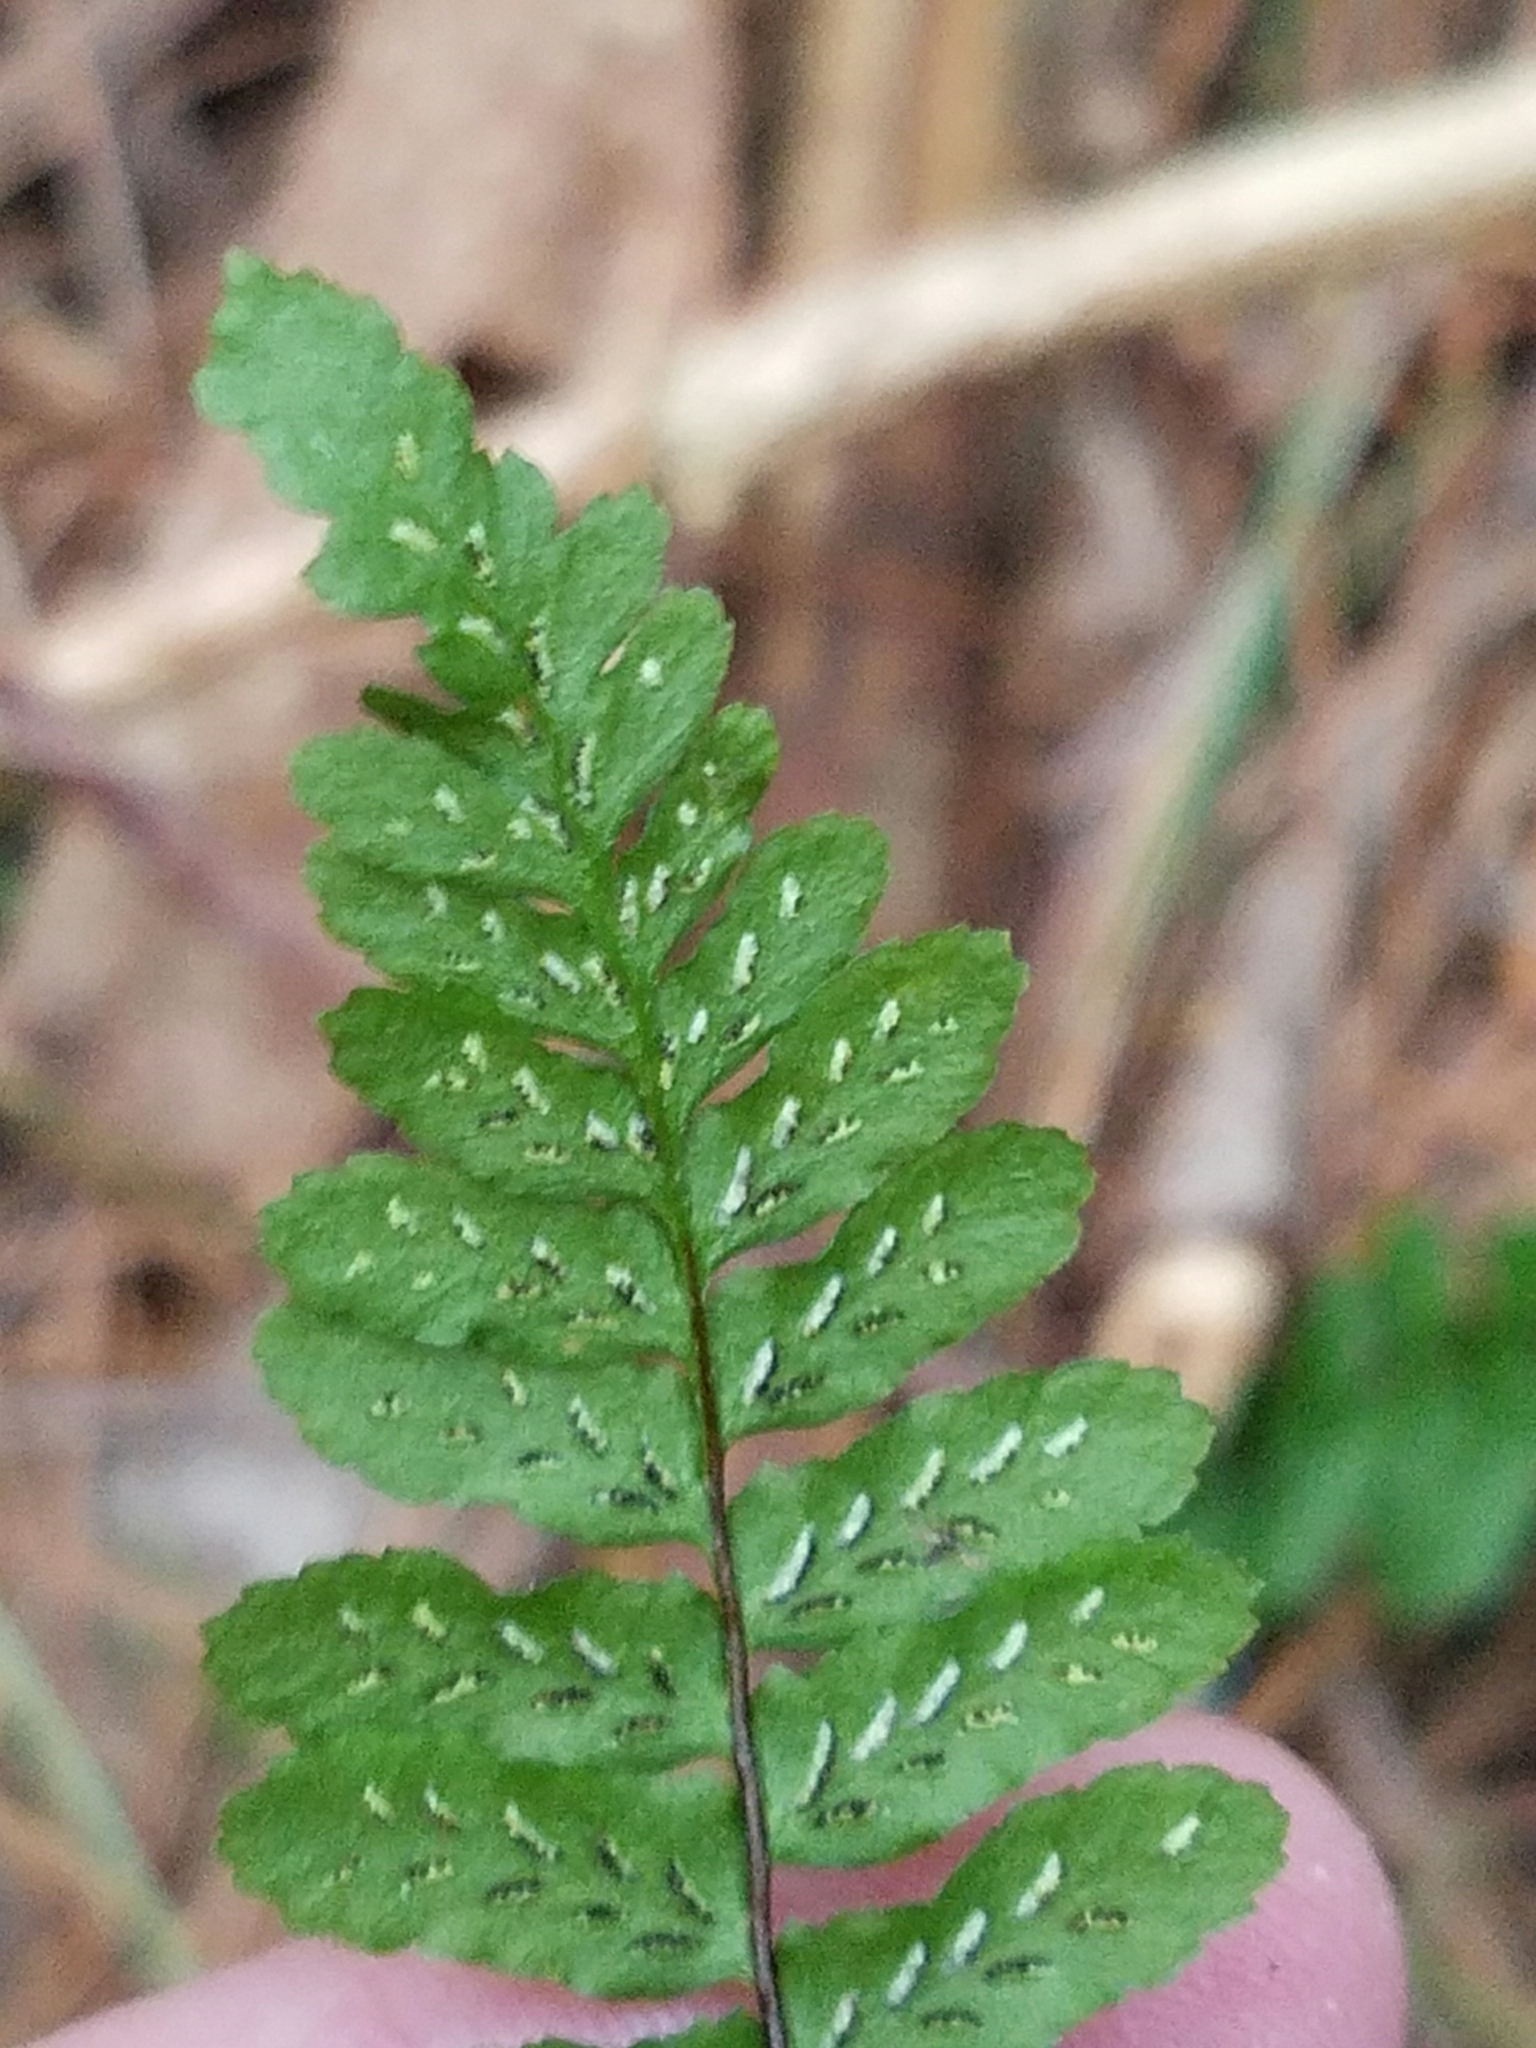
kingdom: Plantae
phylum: Tracheophyta
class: Polypodiopsida
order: Polypodiales
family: Aspleniaceae
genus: Asplenium
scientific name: Asplenium platyneuron
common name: Ebony spleenwort
